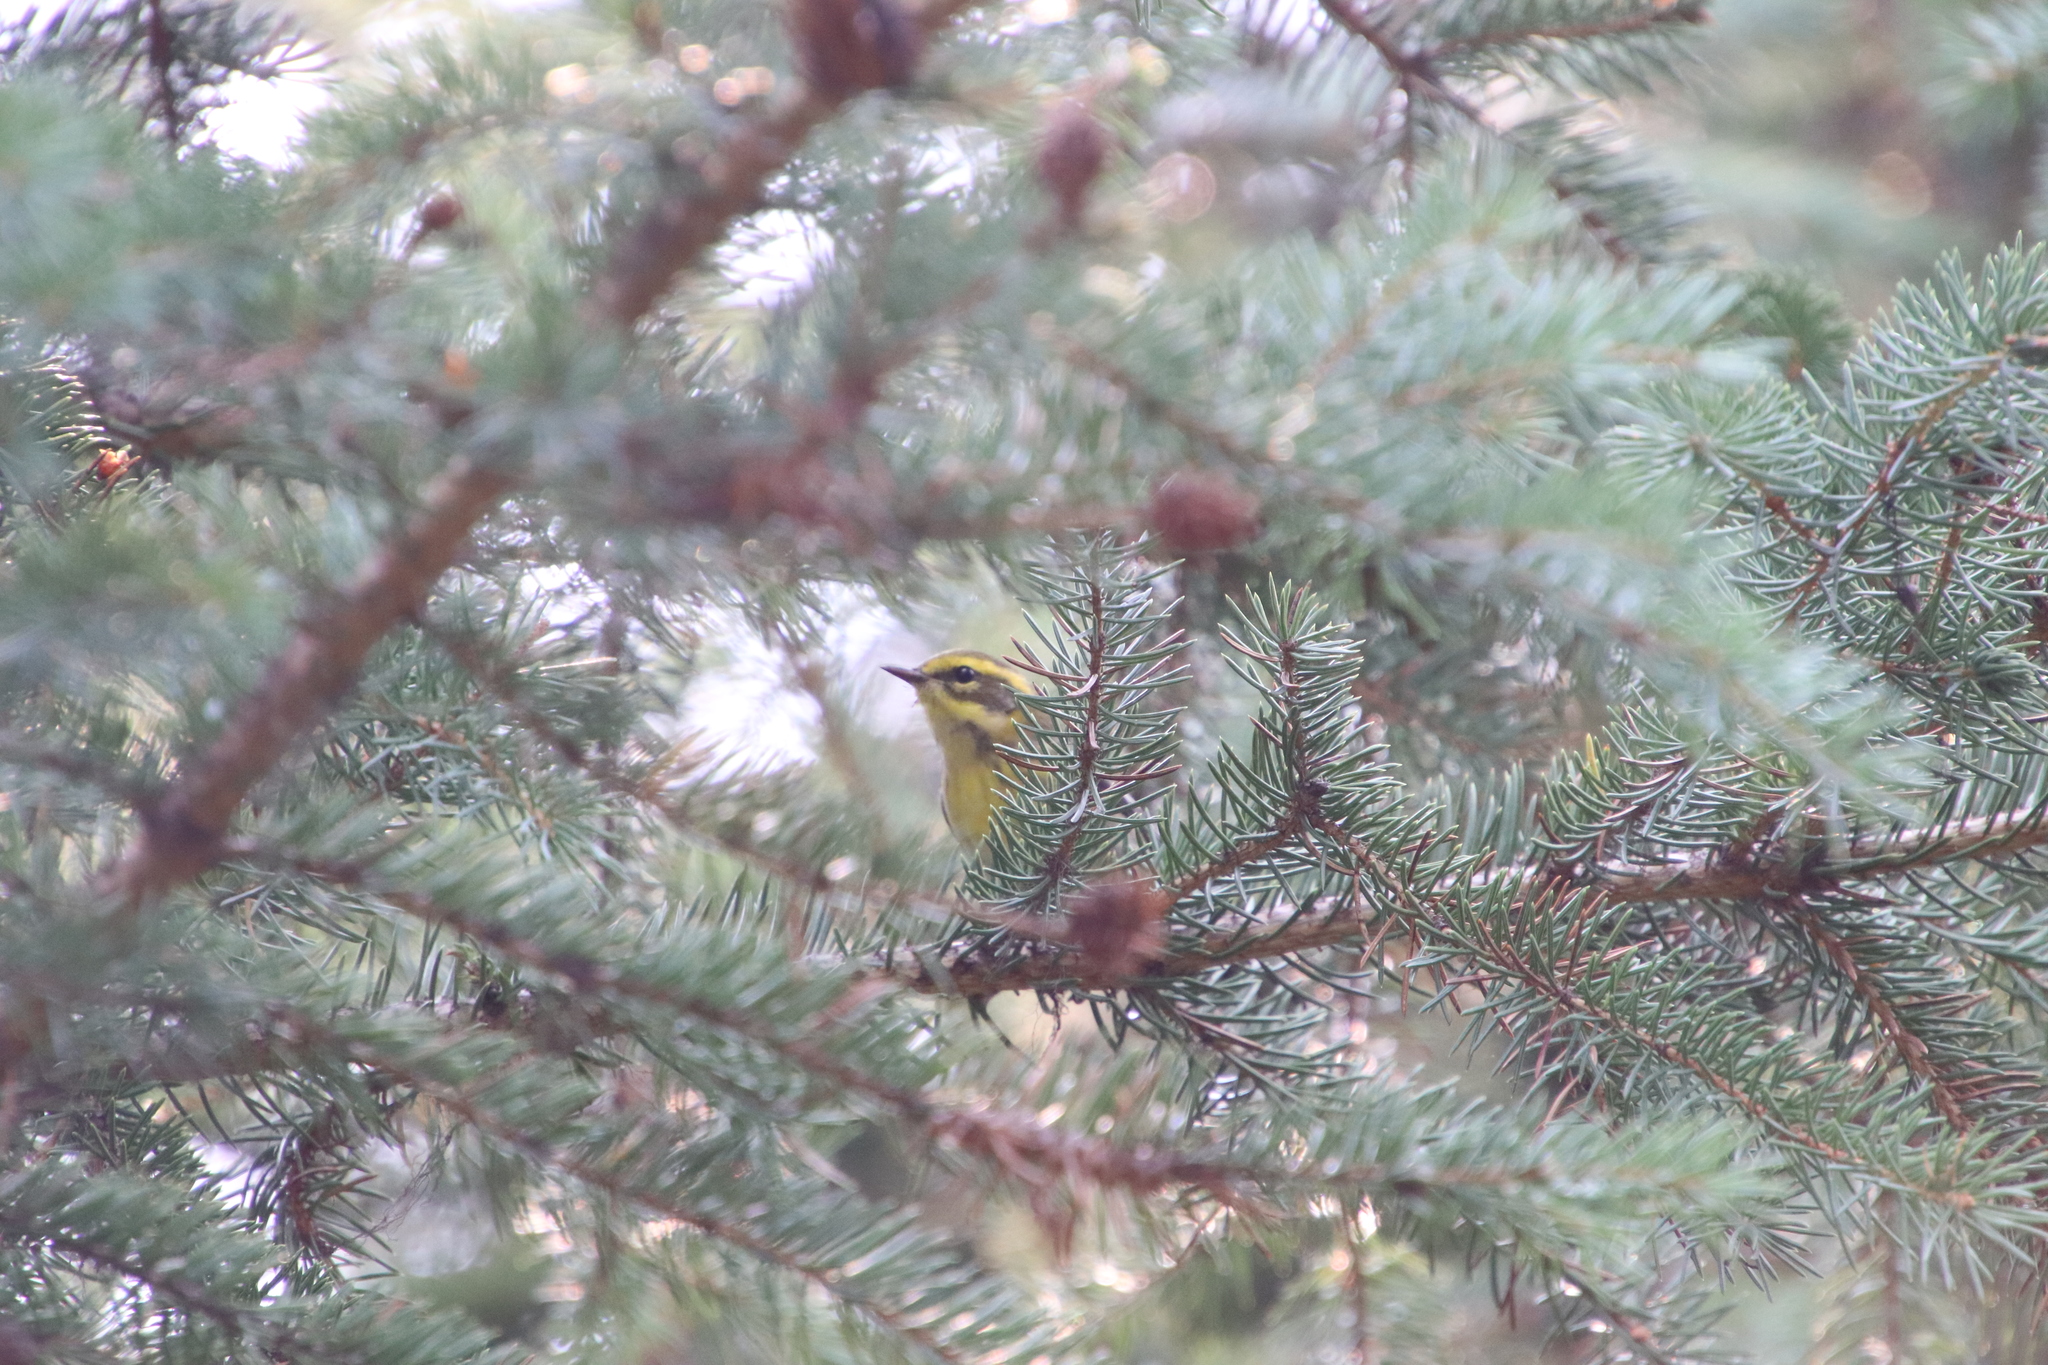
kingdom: Animalia
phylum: Chordata
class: Aves
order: Passeriformes
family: Parulidae
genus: Setophaga
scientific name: Setophaga townsendi
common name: Townsend's warbler
